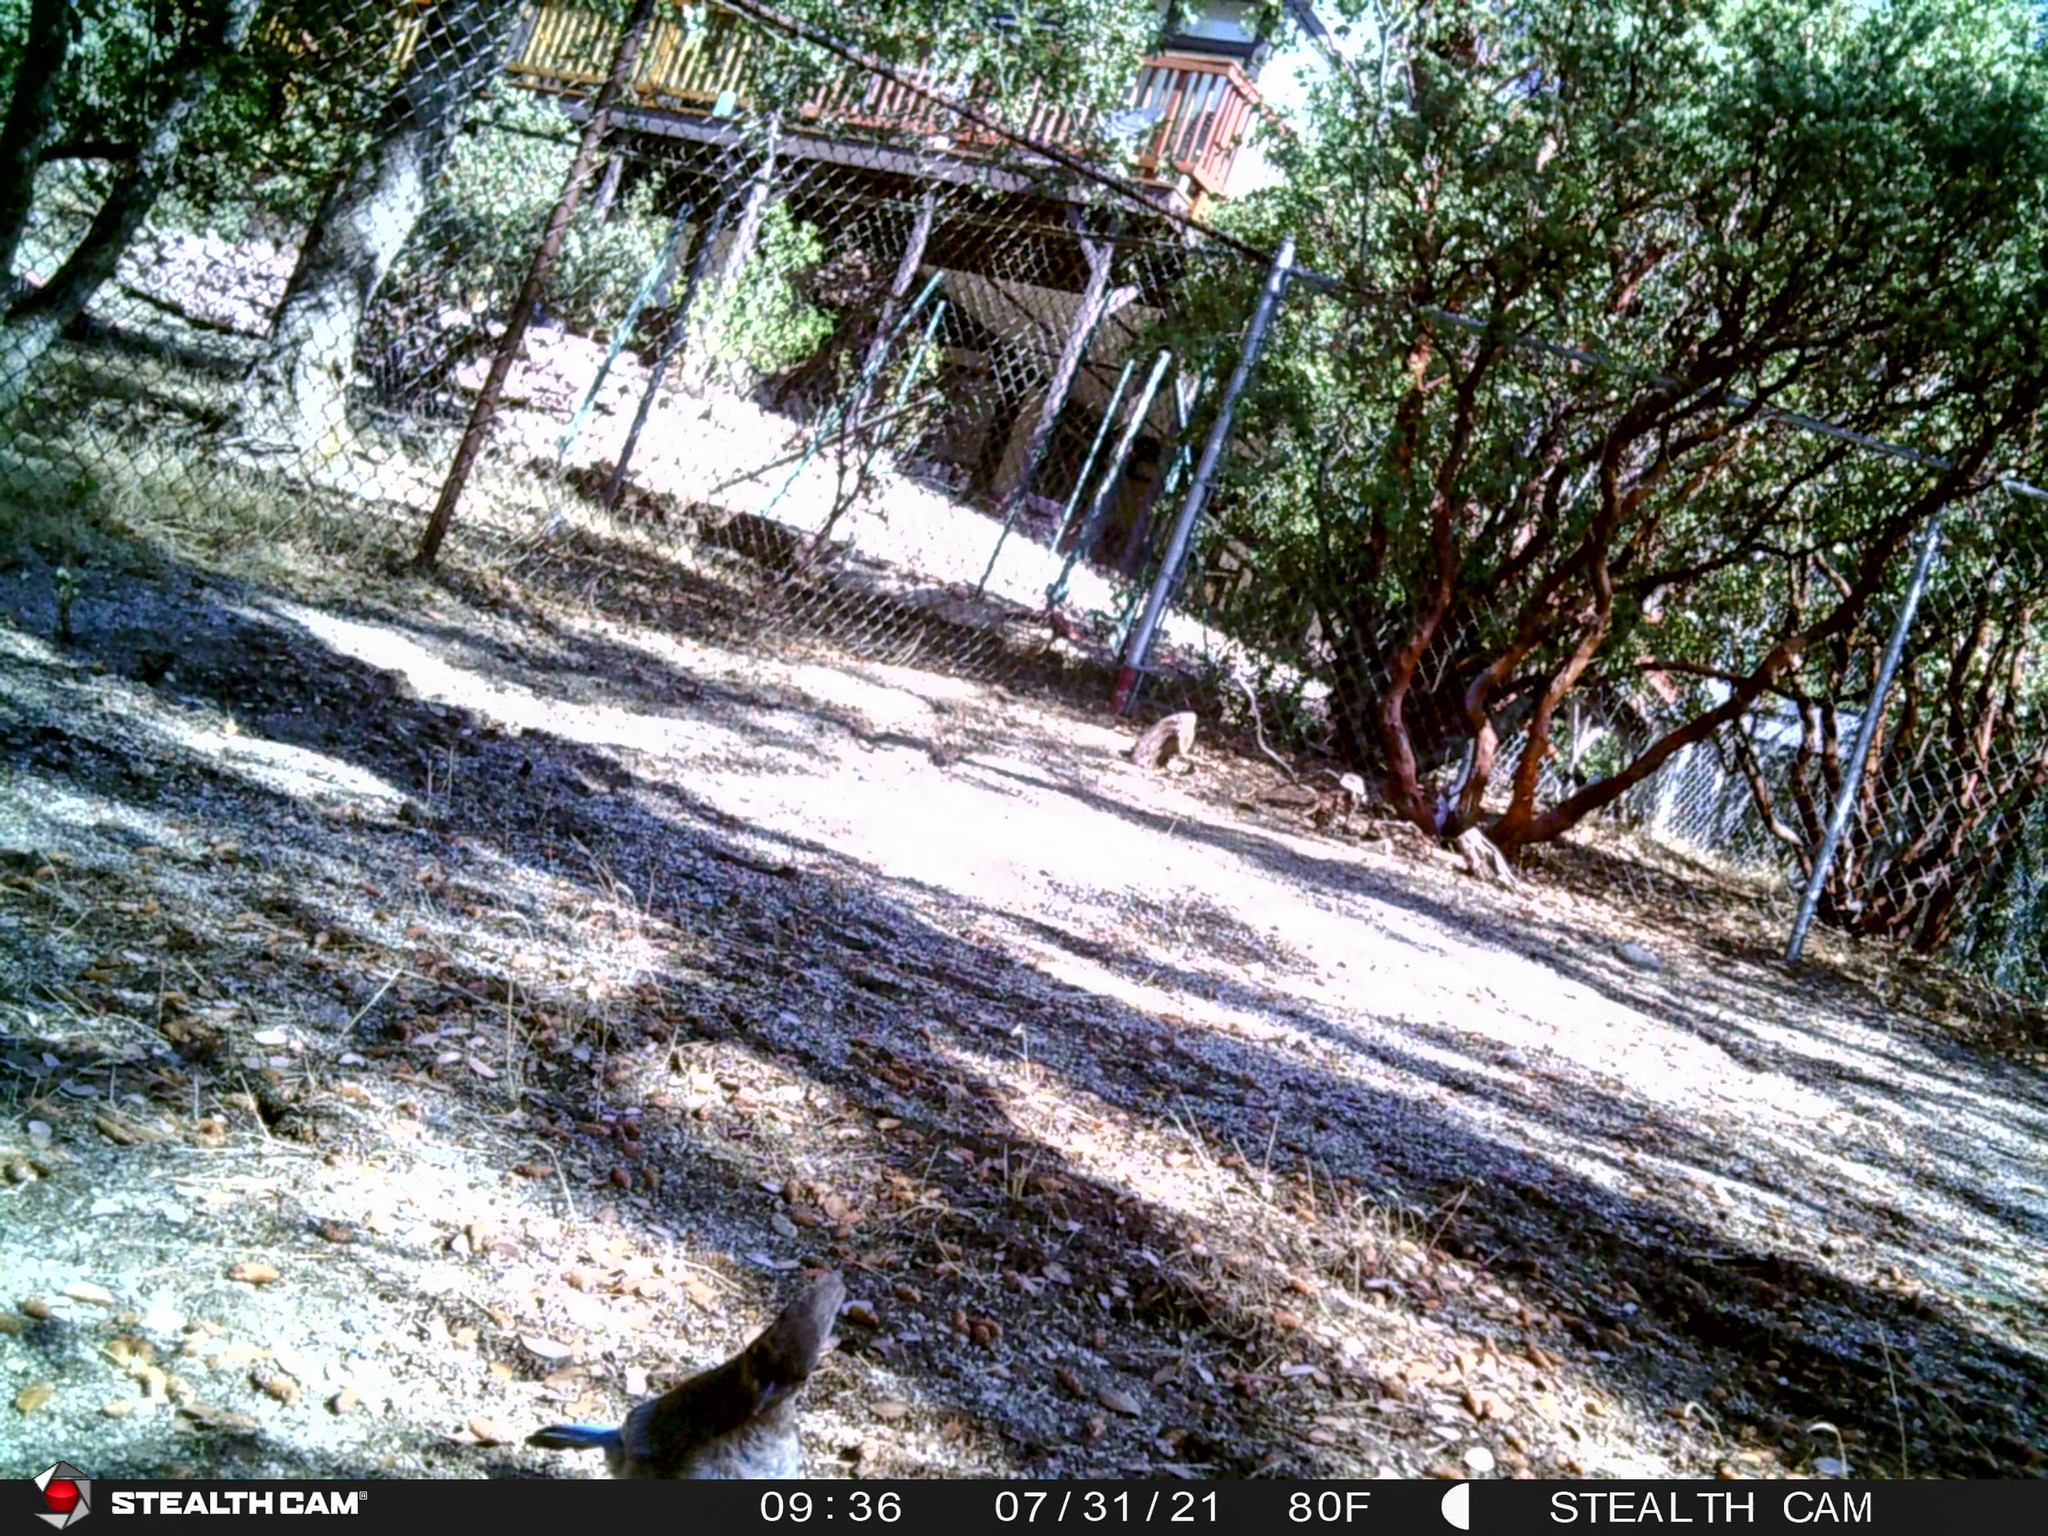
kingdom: Animalia
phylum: Chordata
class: Aves
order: Passeriformes
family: Corvidae
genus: Cyanocitta
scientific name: Cyanocitta stelleri
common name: Steller's jay
